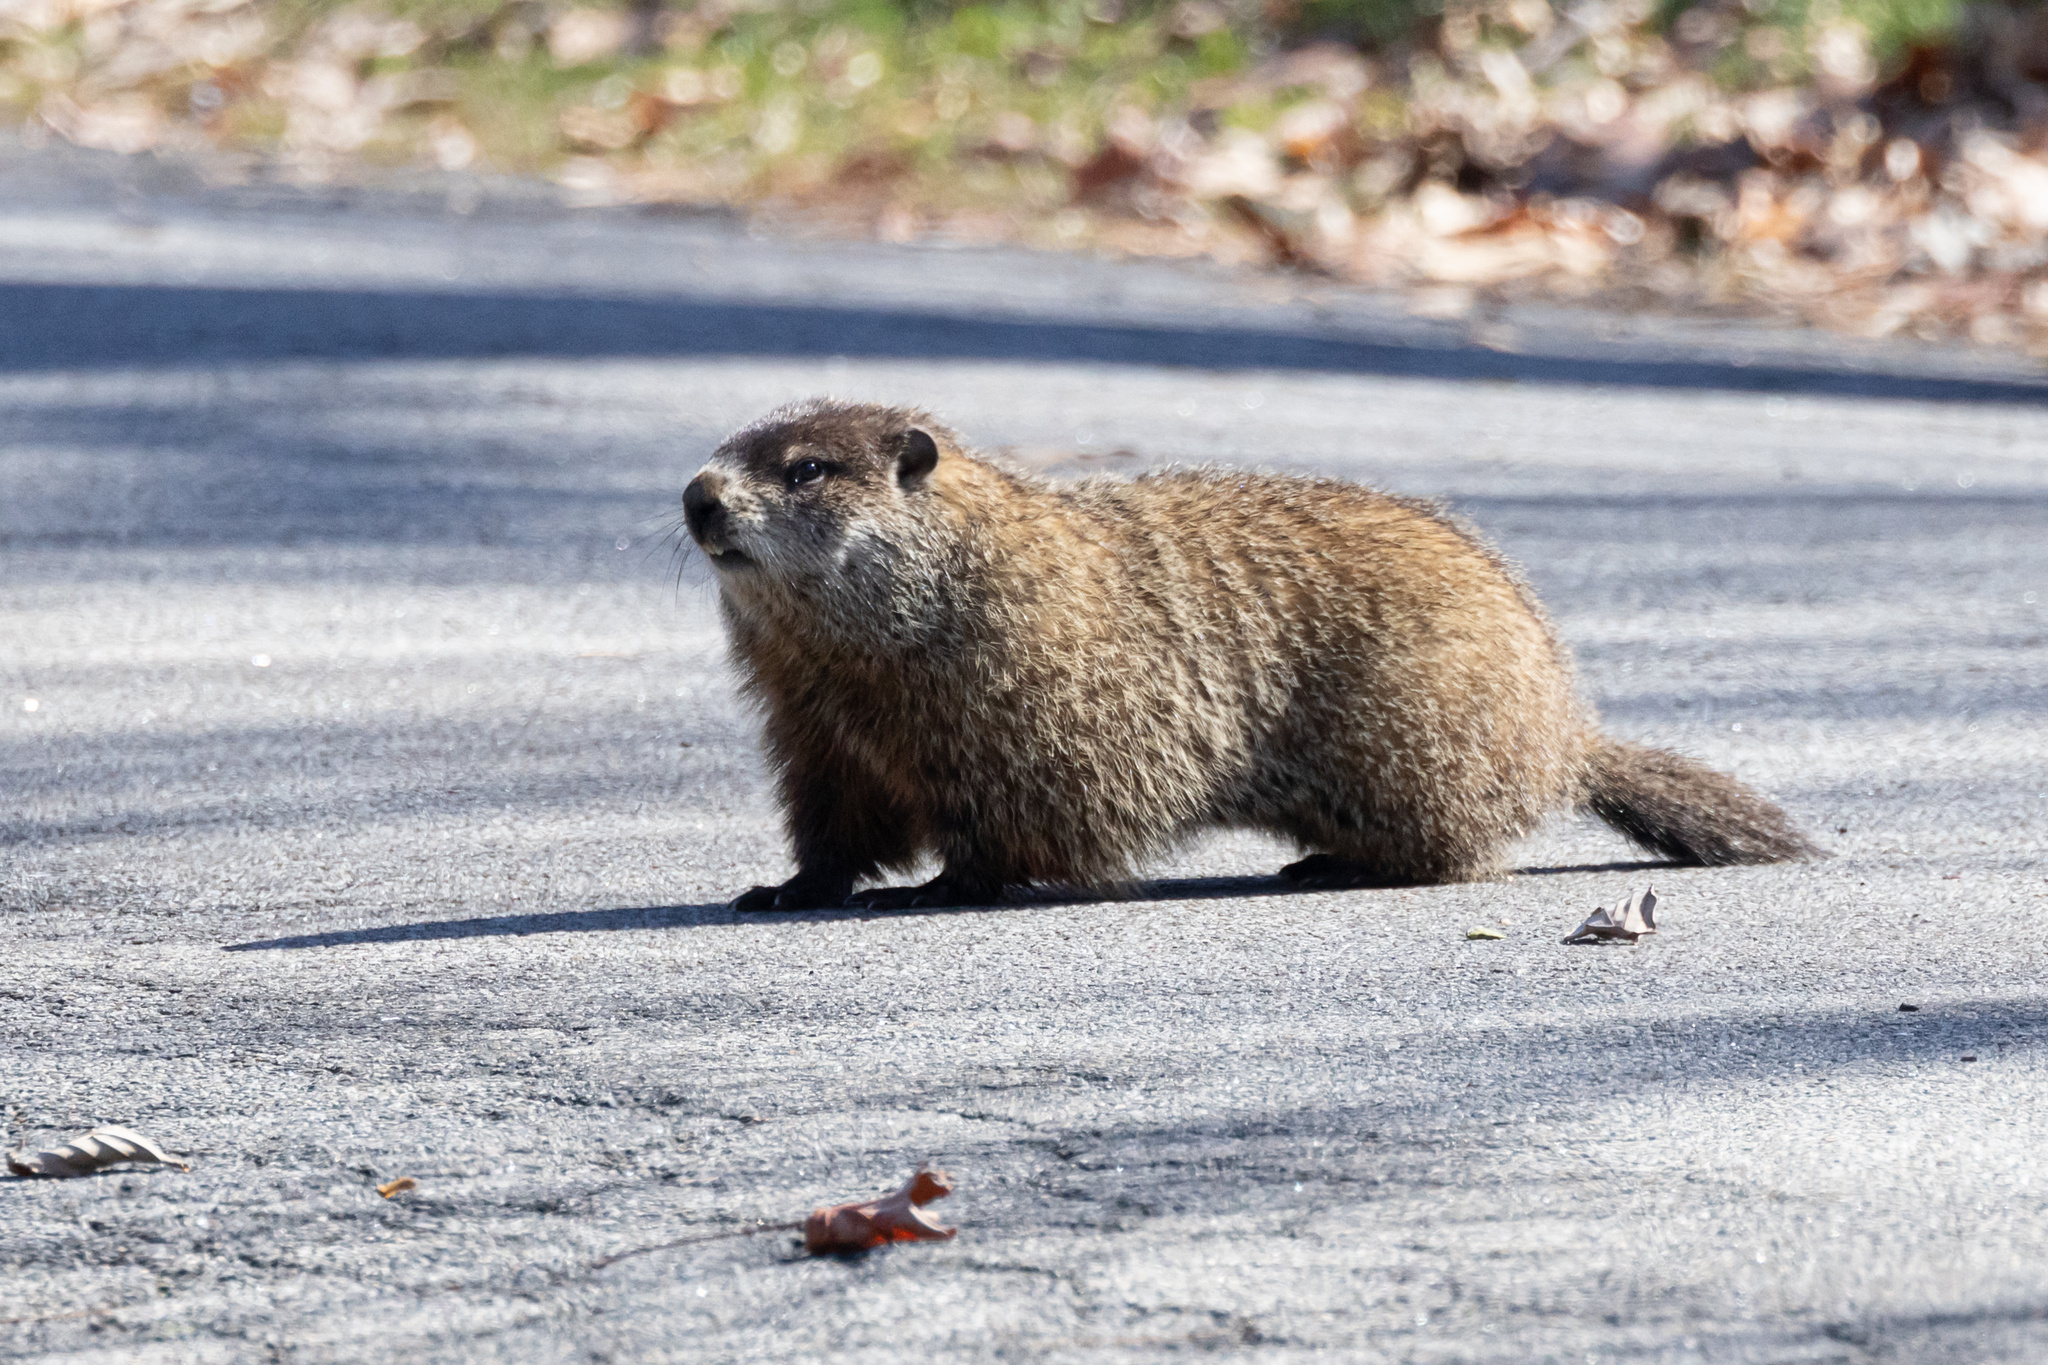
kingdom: Animalia
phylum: Chordata
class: Mammalia
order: Rodentia
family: Sciuridae
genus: Marmota
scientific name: Marmota monax
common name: Groundhog
